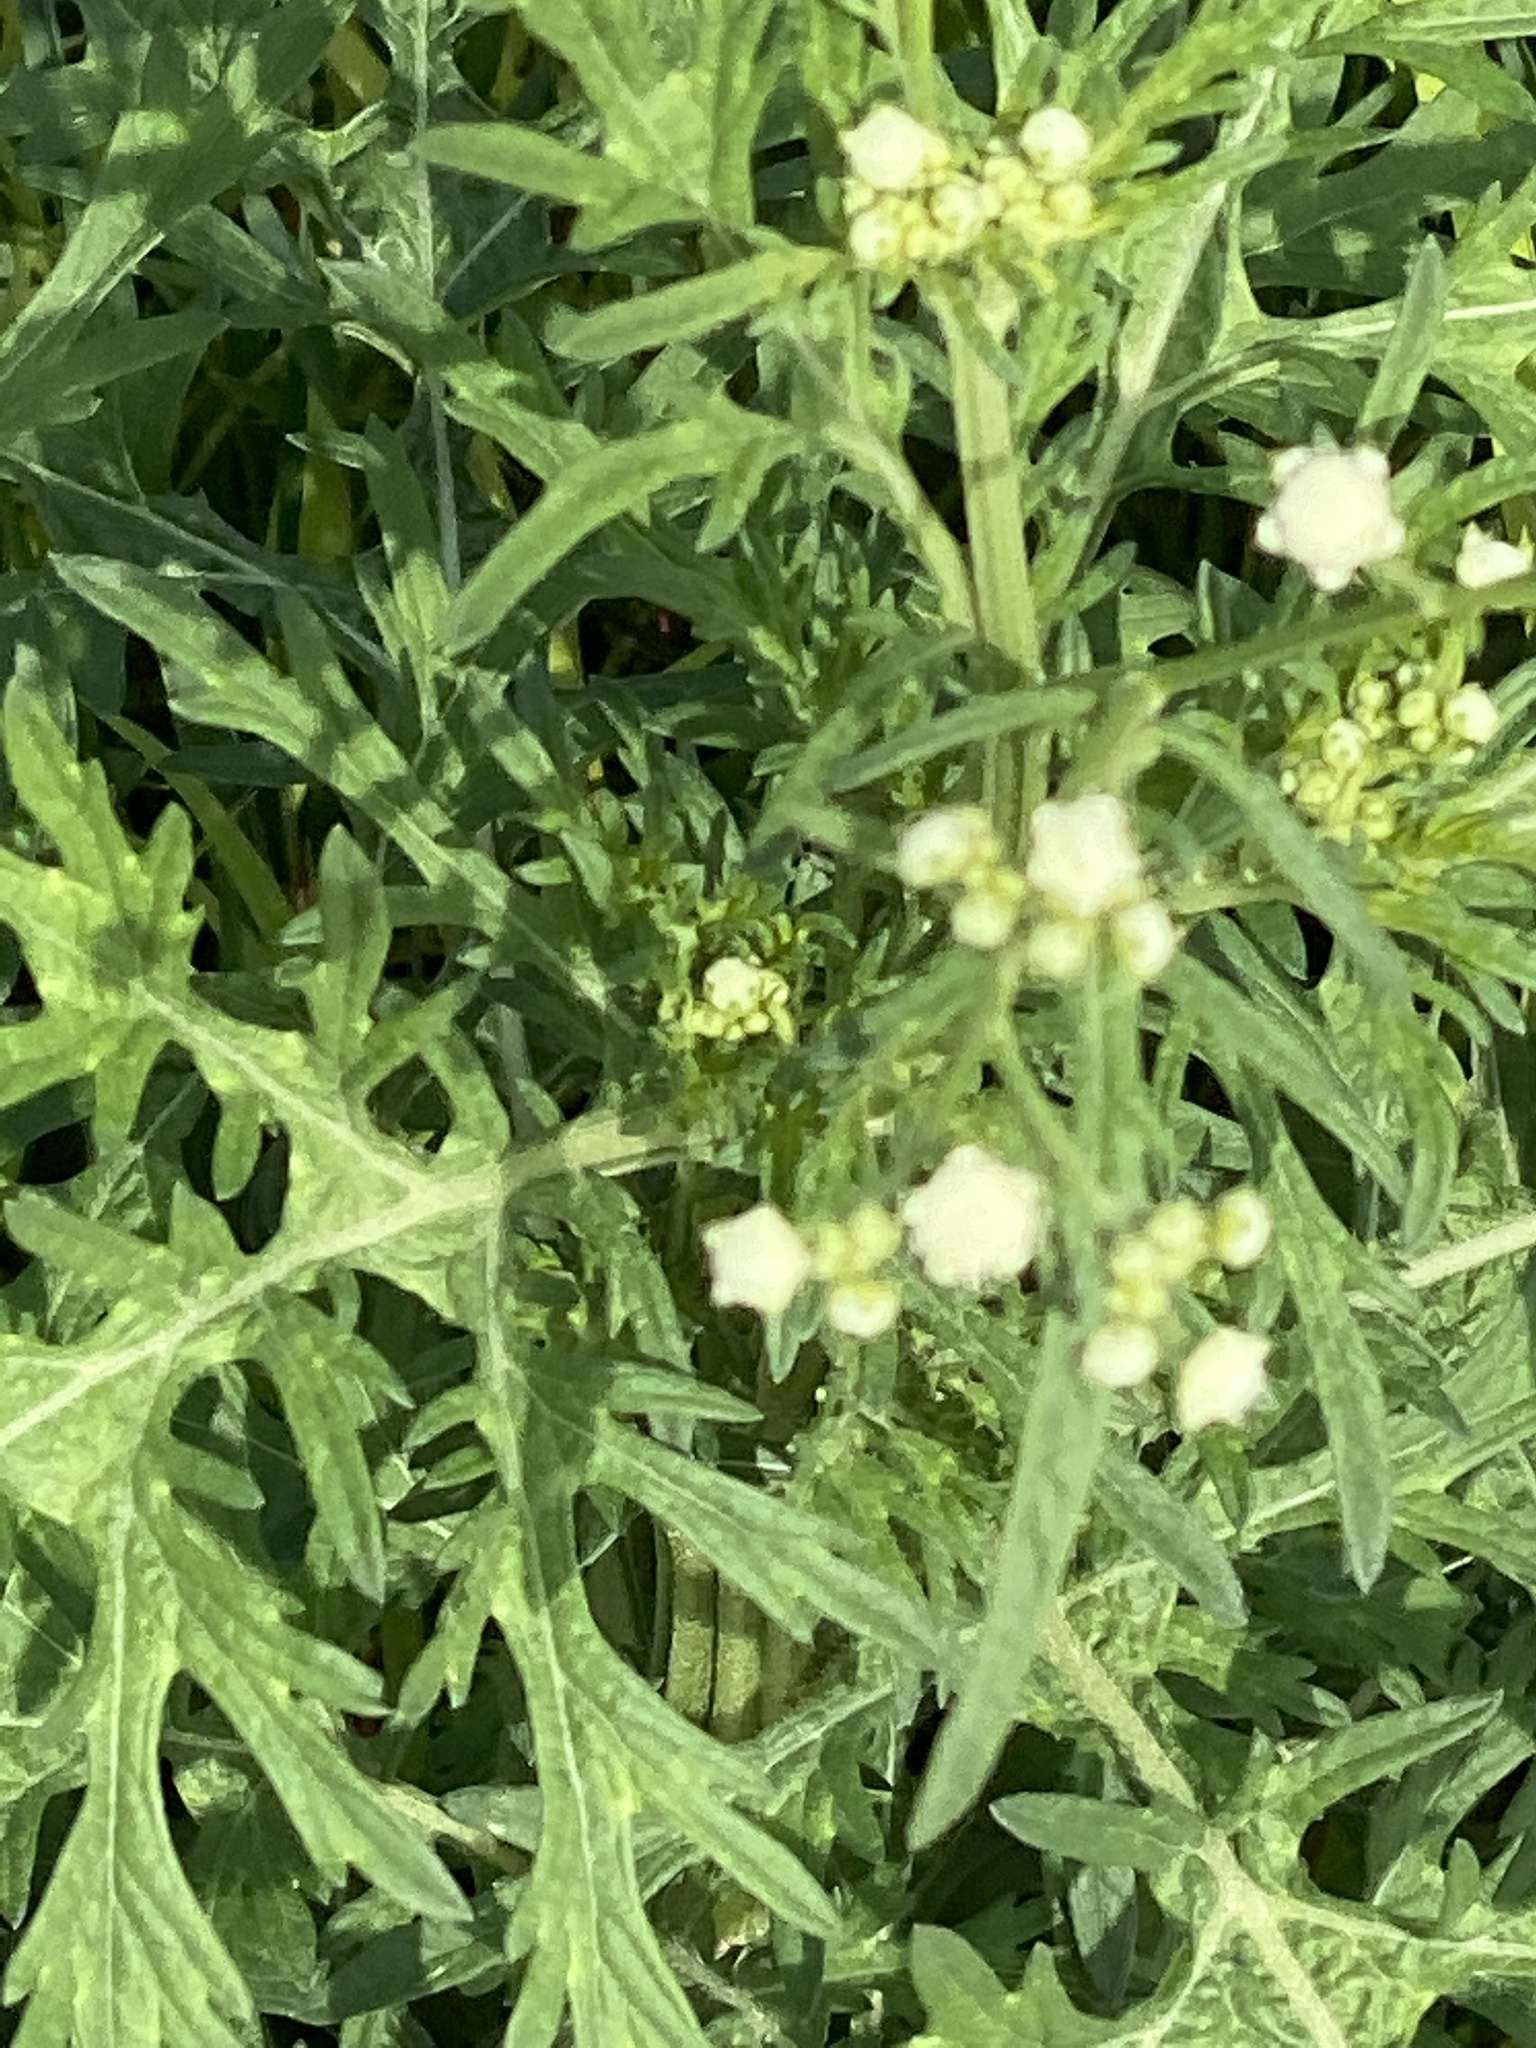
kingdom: Plantae
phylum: Tracheophyta
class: Magnoliopsida
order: Asterales
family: Asteraceae
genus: Parthenium
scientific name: Parthenium hysterophorus
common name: Santa maria feverfew
